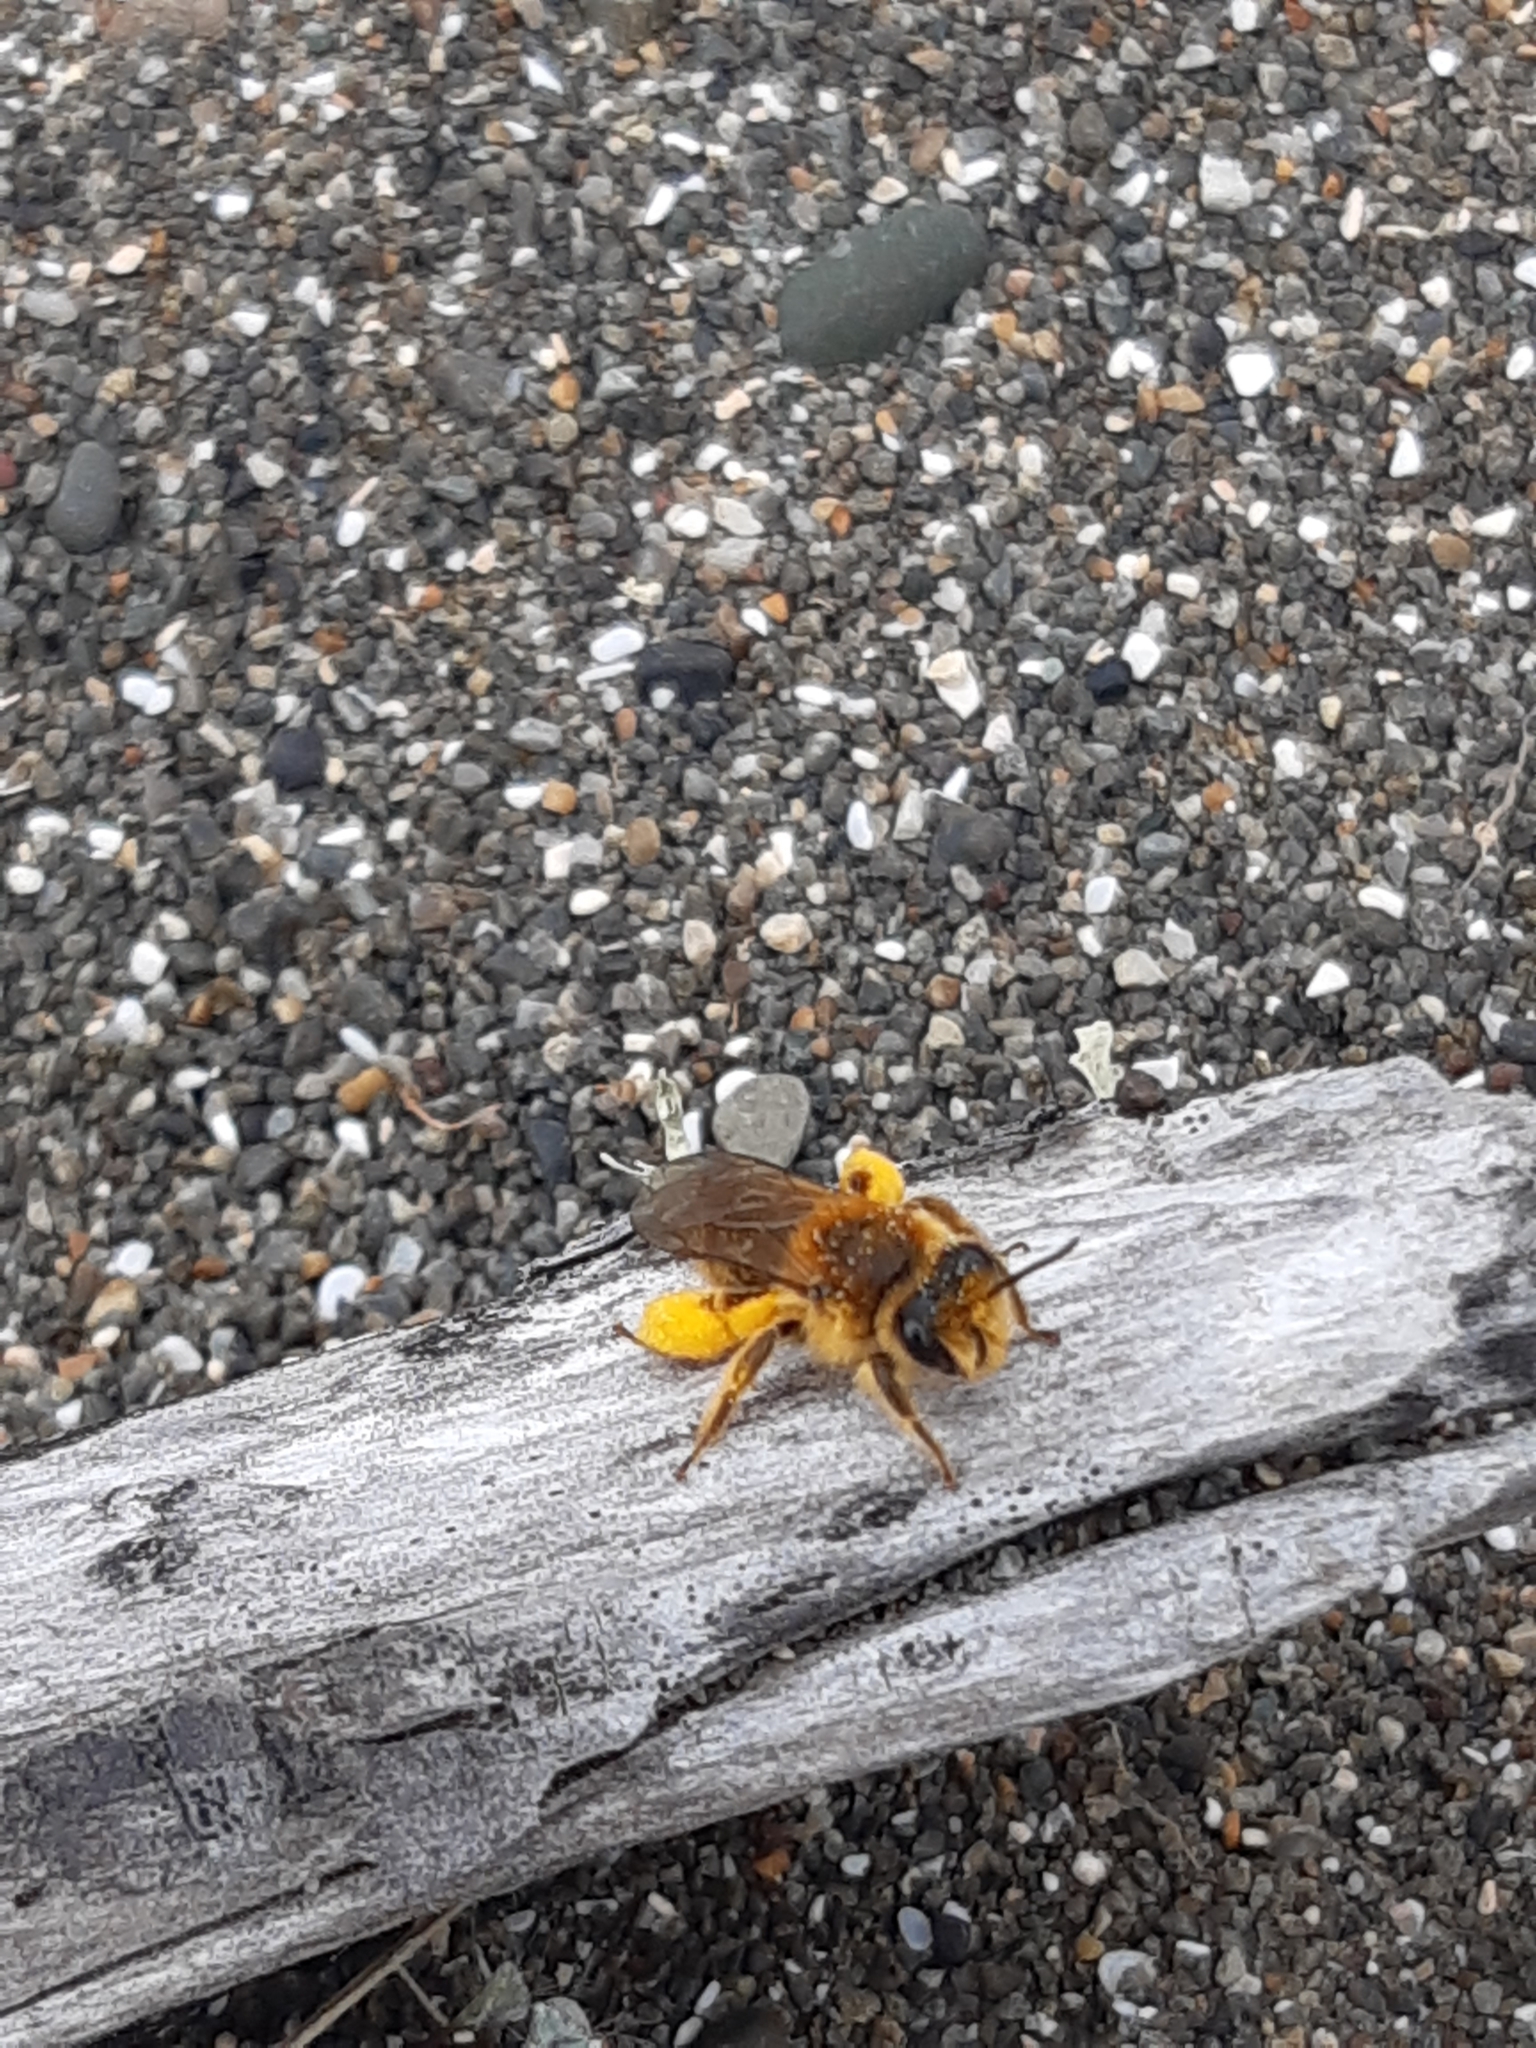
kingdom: Animalia
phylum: Arthropoda
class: Insecta
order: Hymenoptera
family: Colletidae
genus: Leioproctus
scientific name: Leioproctus fulvescens
